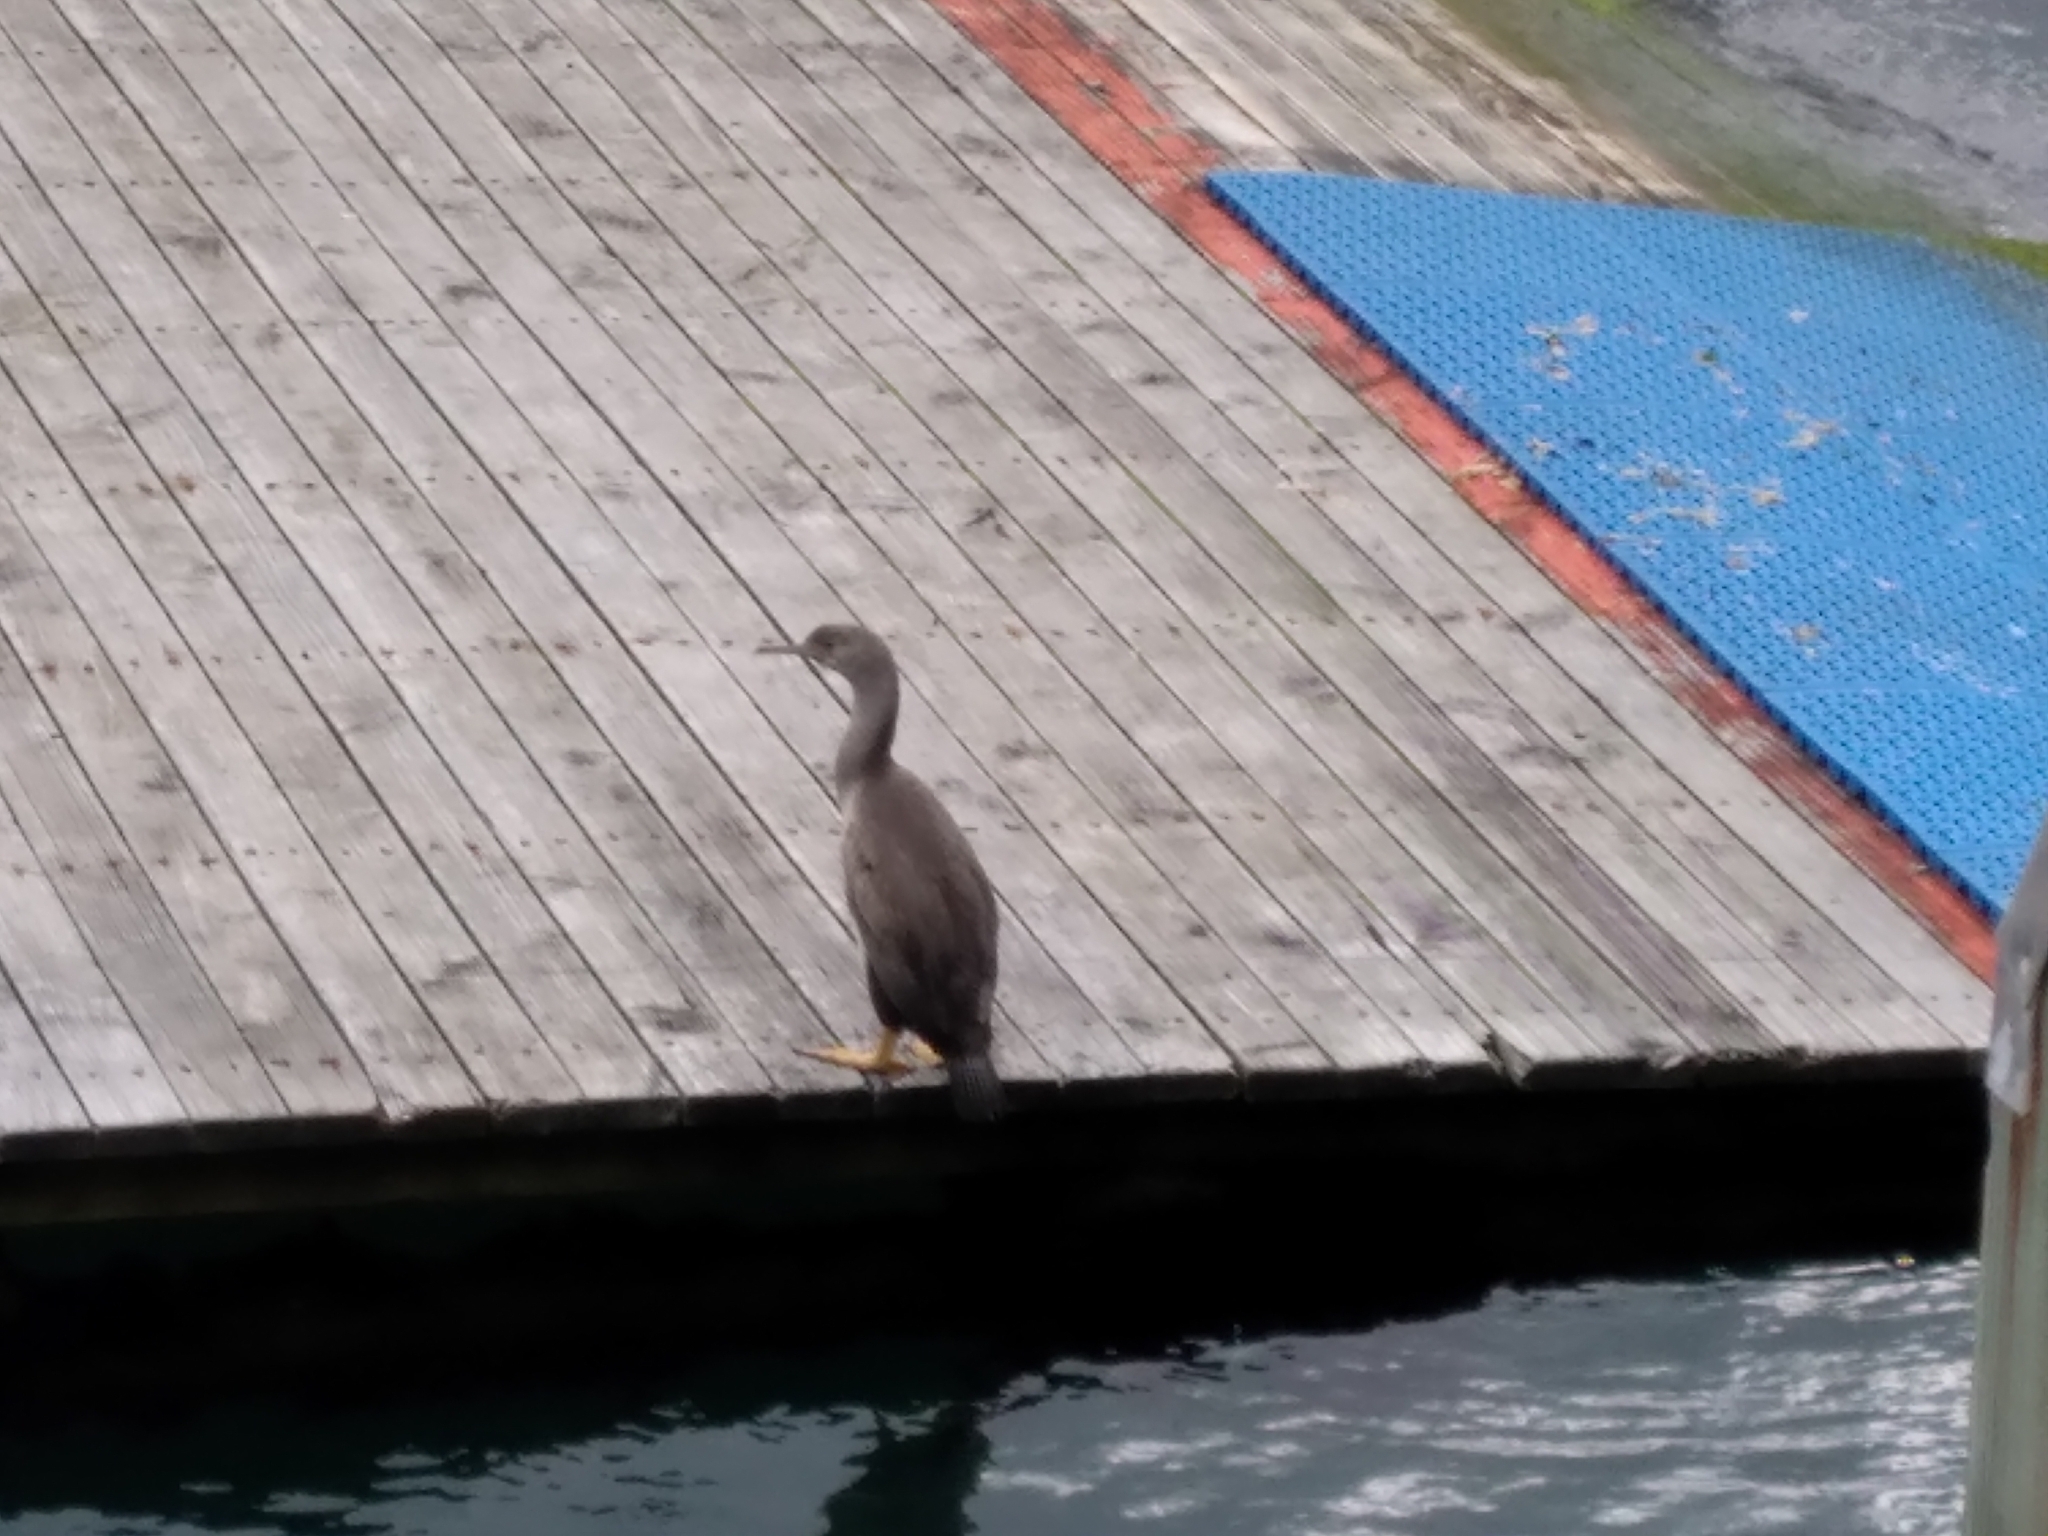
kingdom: Animalia
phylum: Chordata
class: Aves
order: Suliformes
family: Phalacrocoracidae
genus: Phalacrocorax
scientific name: Phalacrocorax punctatus
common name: Spotted shag
